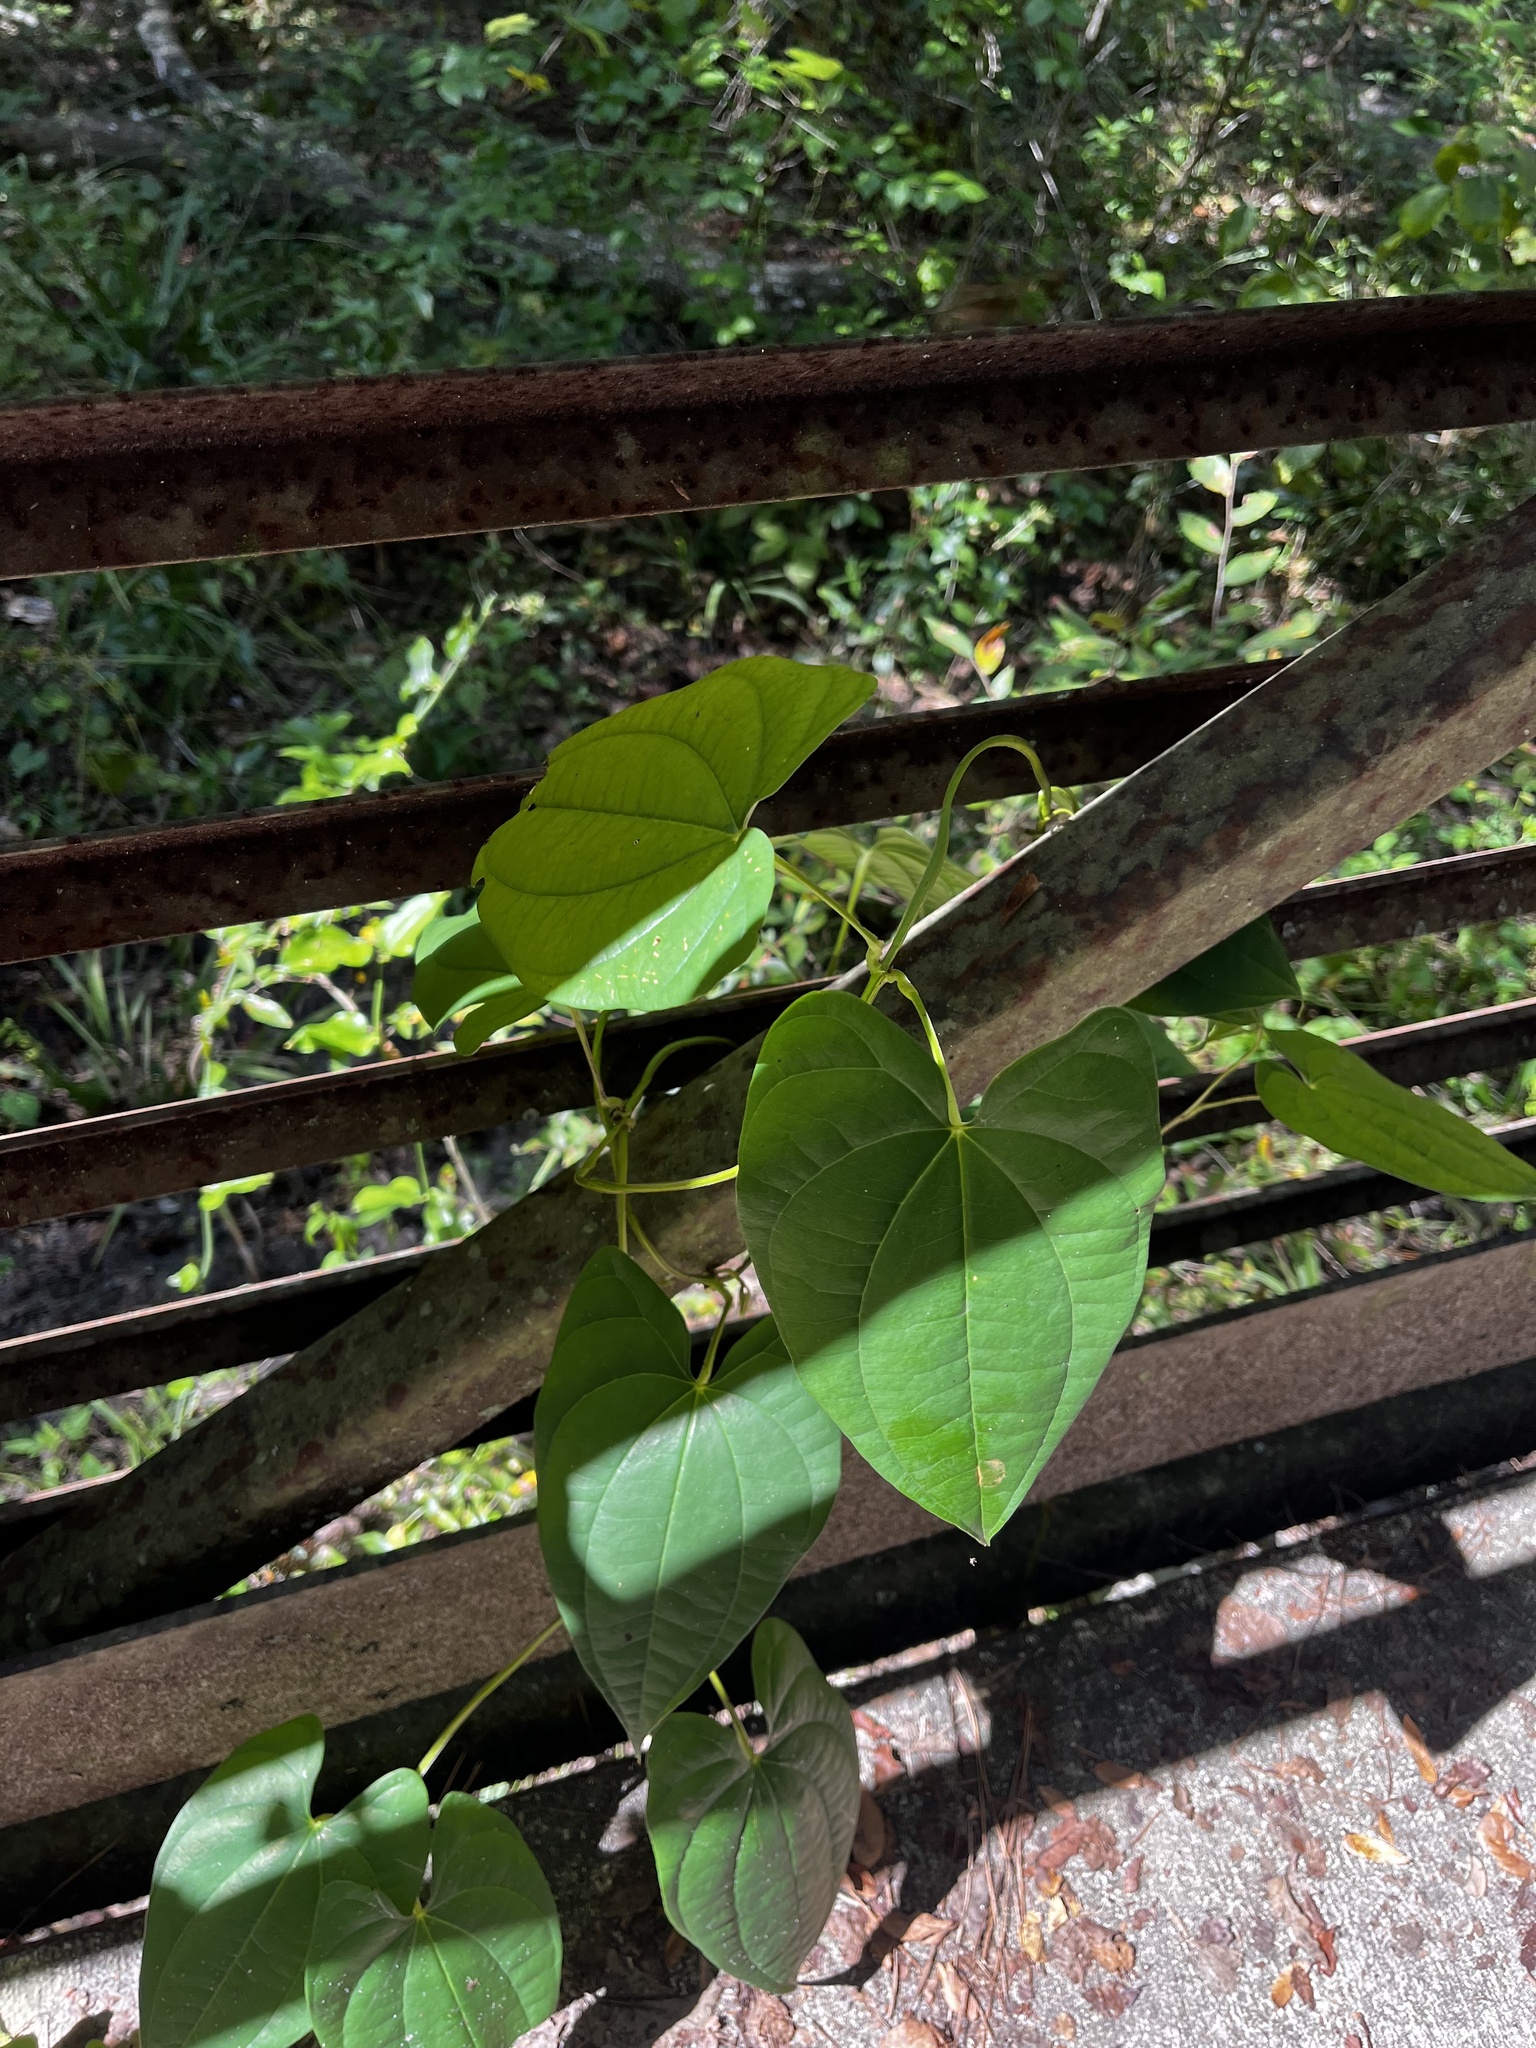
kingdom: Plantae
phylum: Tracheophyta
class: Liliopsida
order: Dioscoreales
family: Dioscoreaceae
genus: Dioscorea
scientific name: Dioscorea alata
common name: Water yam
